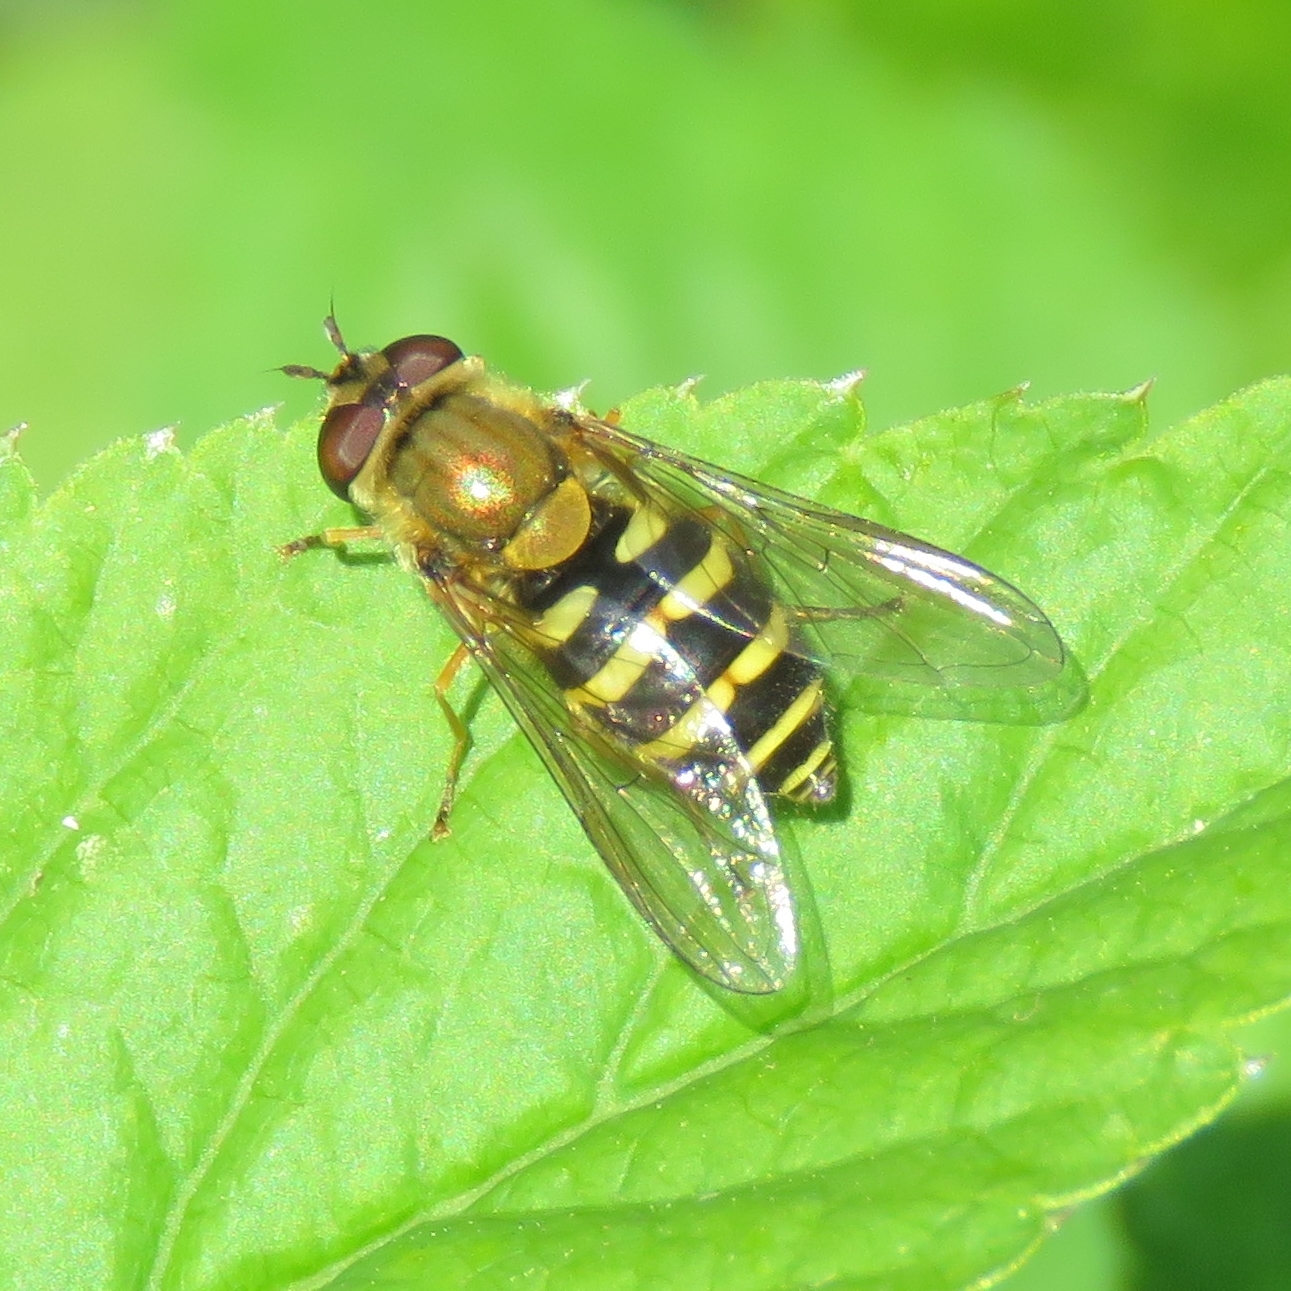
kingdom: Animalia
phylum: Arthropoda
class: Insecta
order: Diptera
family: Syrphidae
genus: Syrphus
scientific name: Syrphus
